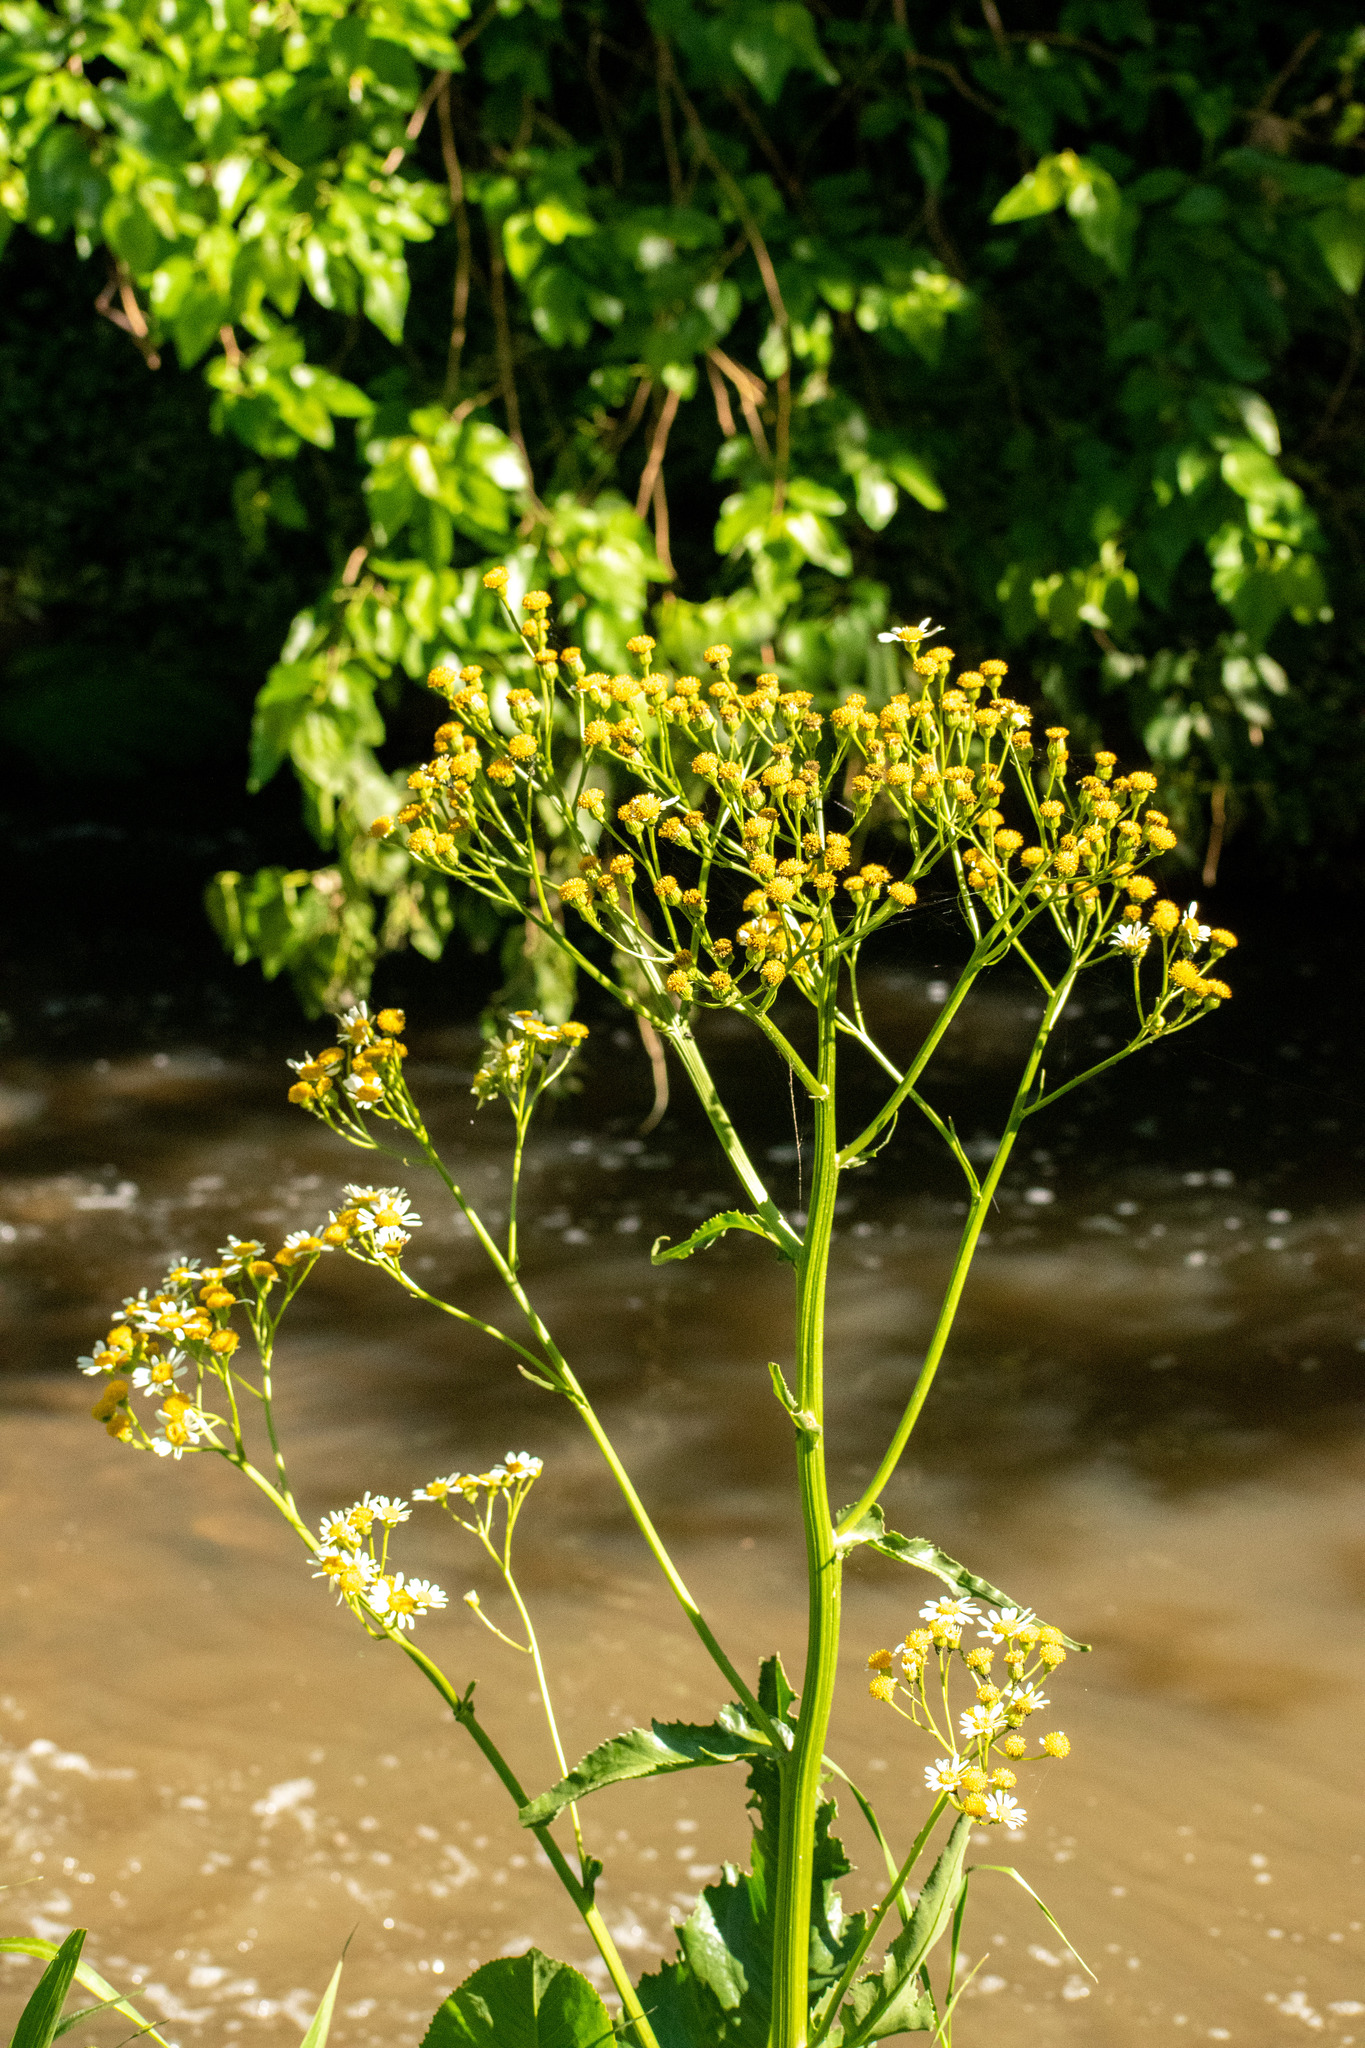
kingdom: Plantae
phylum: Tracheophyta
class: Magnoliopsida
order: Asterales
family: Asteraceae
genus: Senecio
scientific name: Senecio bonariensis
